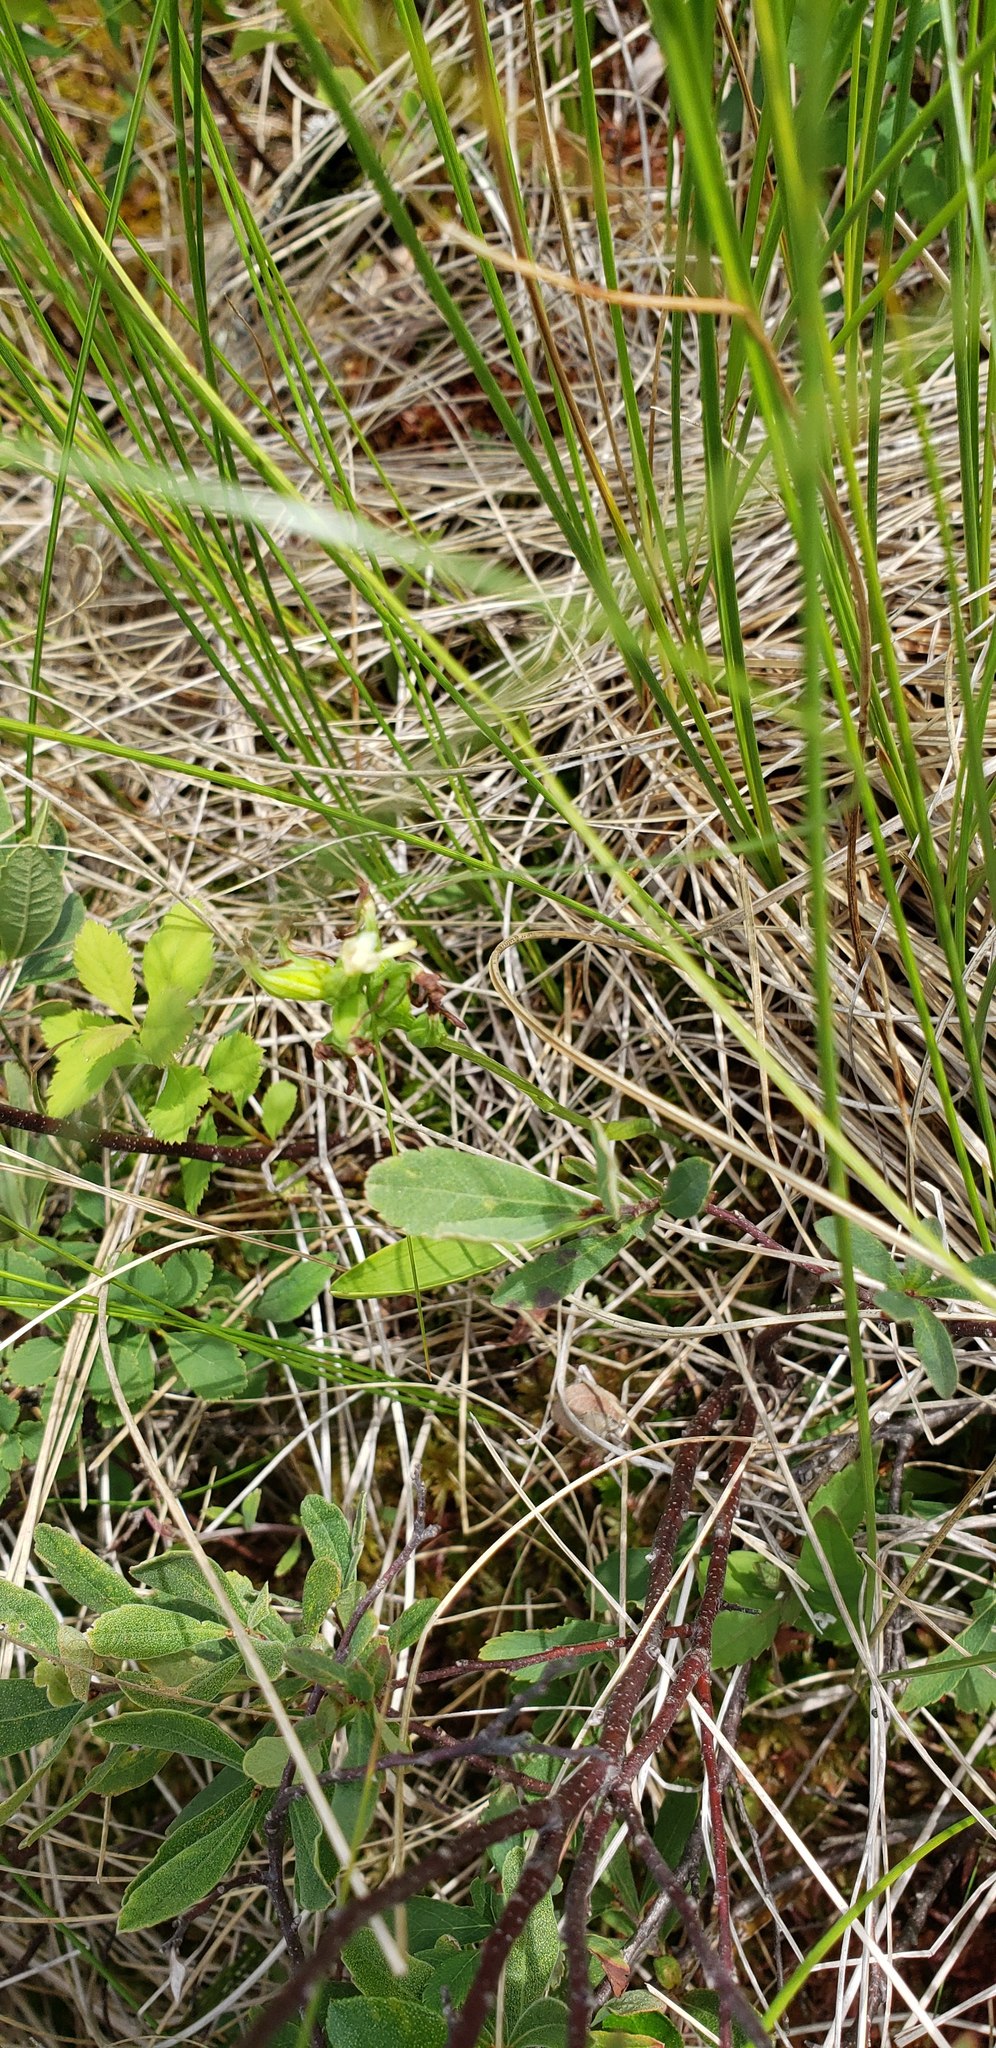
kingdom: Plantae
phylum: Tracheophyta
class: Liliopsida
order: Asparagales
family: Orchidaceae
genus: Platanthera
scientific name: Platanthera clavellata
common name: Club-spur orchid
